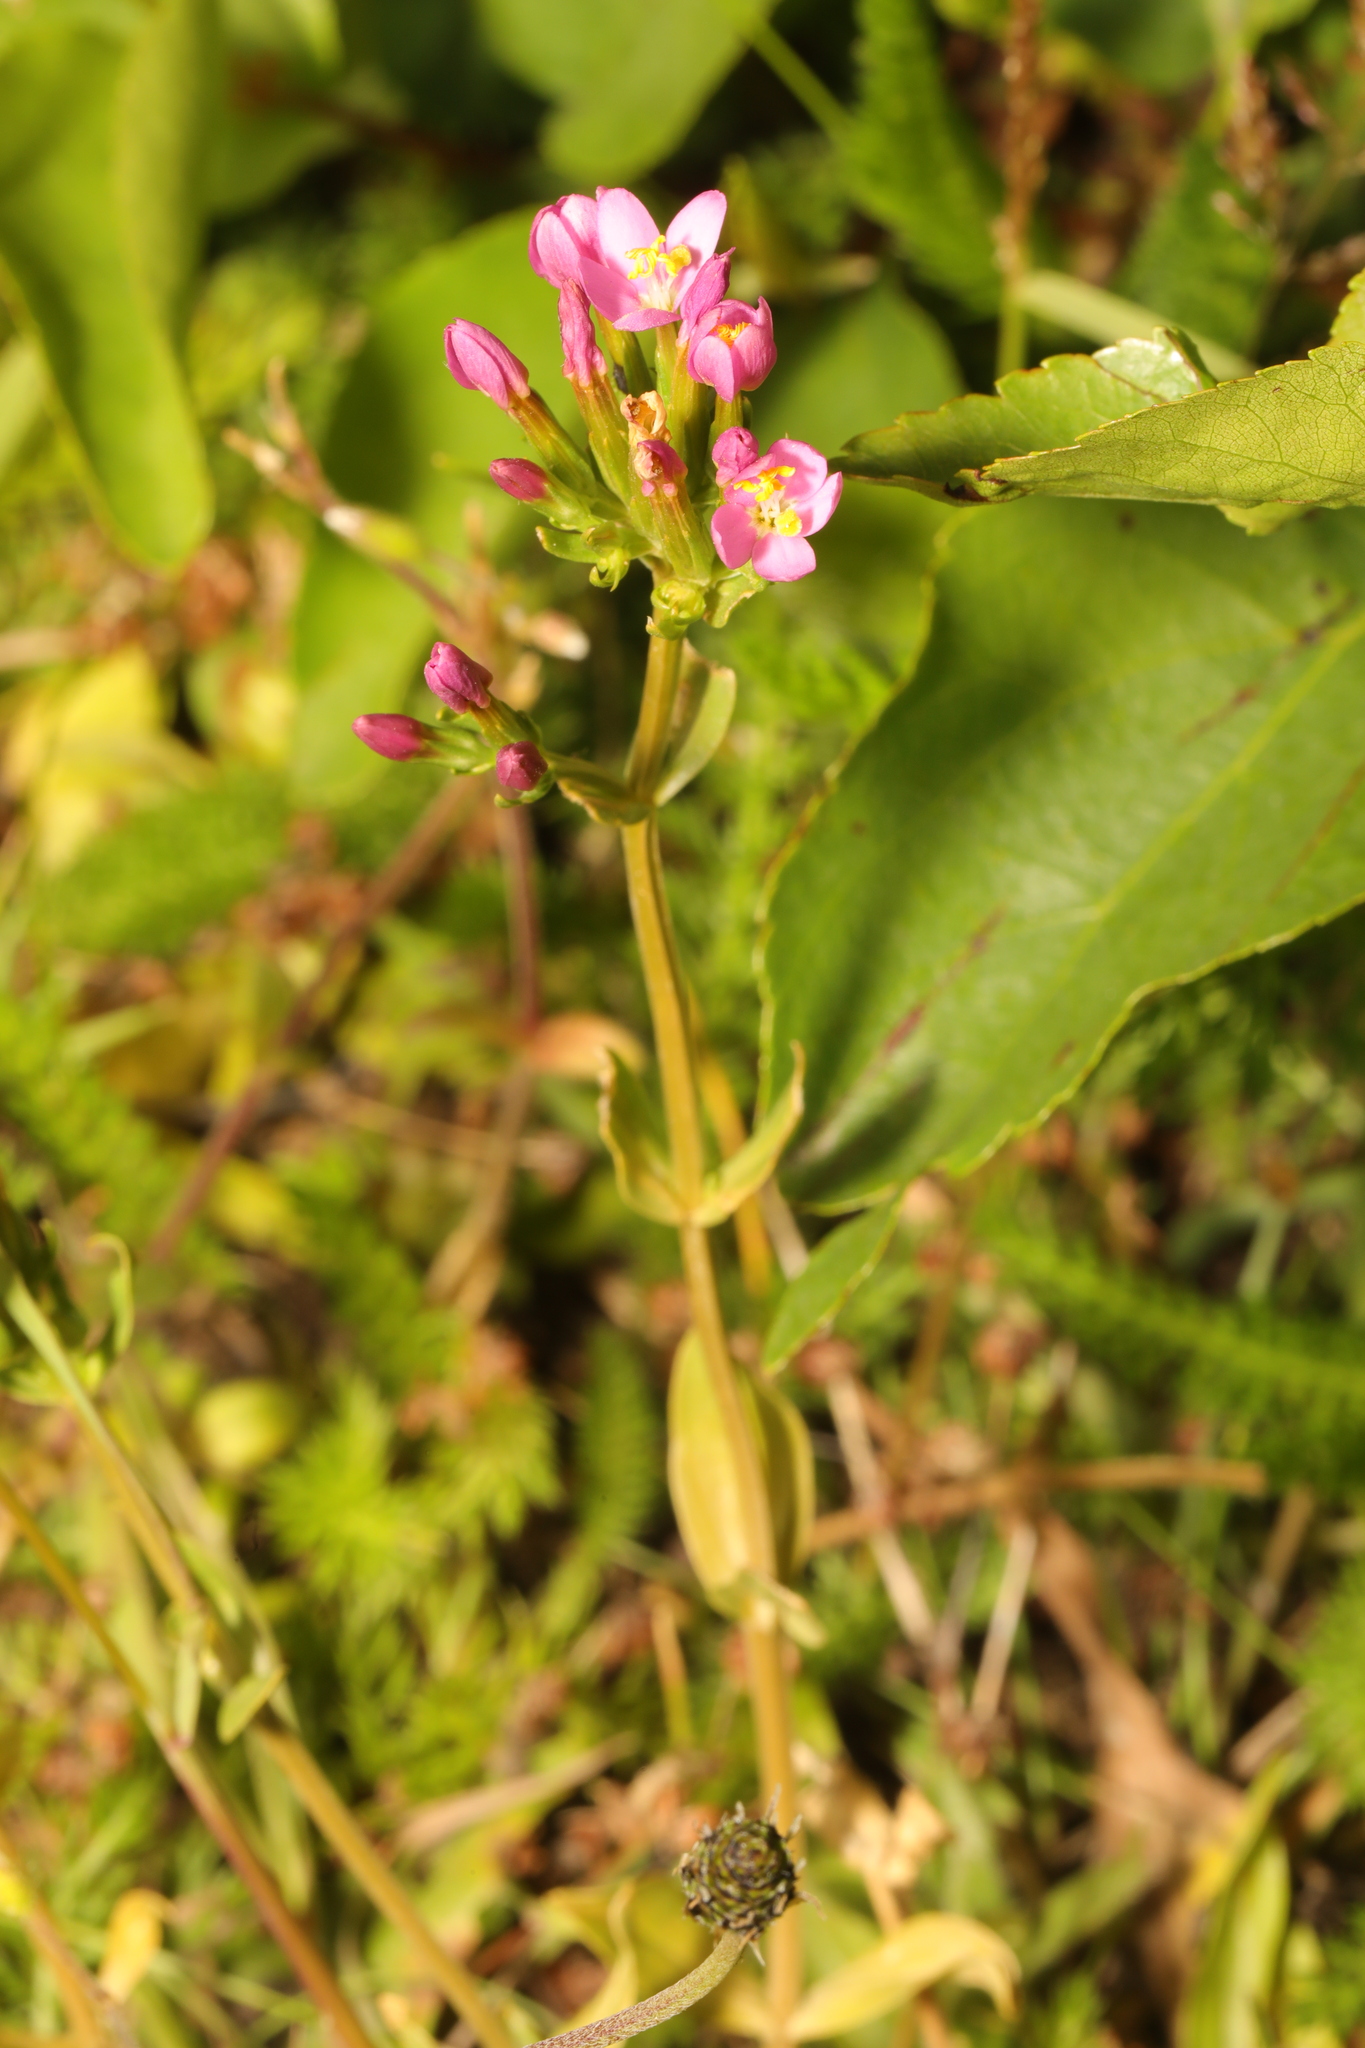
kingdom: Plantae
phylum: Tracheophyta
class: Magnoliopsida
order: Gentianales
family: Gentianaceae
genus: Centaurium
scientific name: Centaurium erythraea
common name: Common centaury
